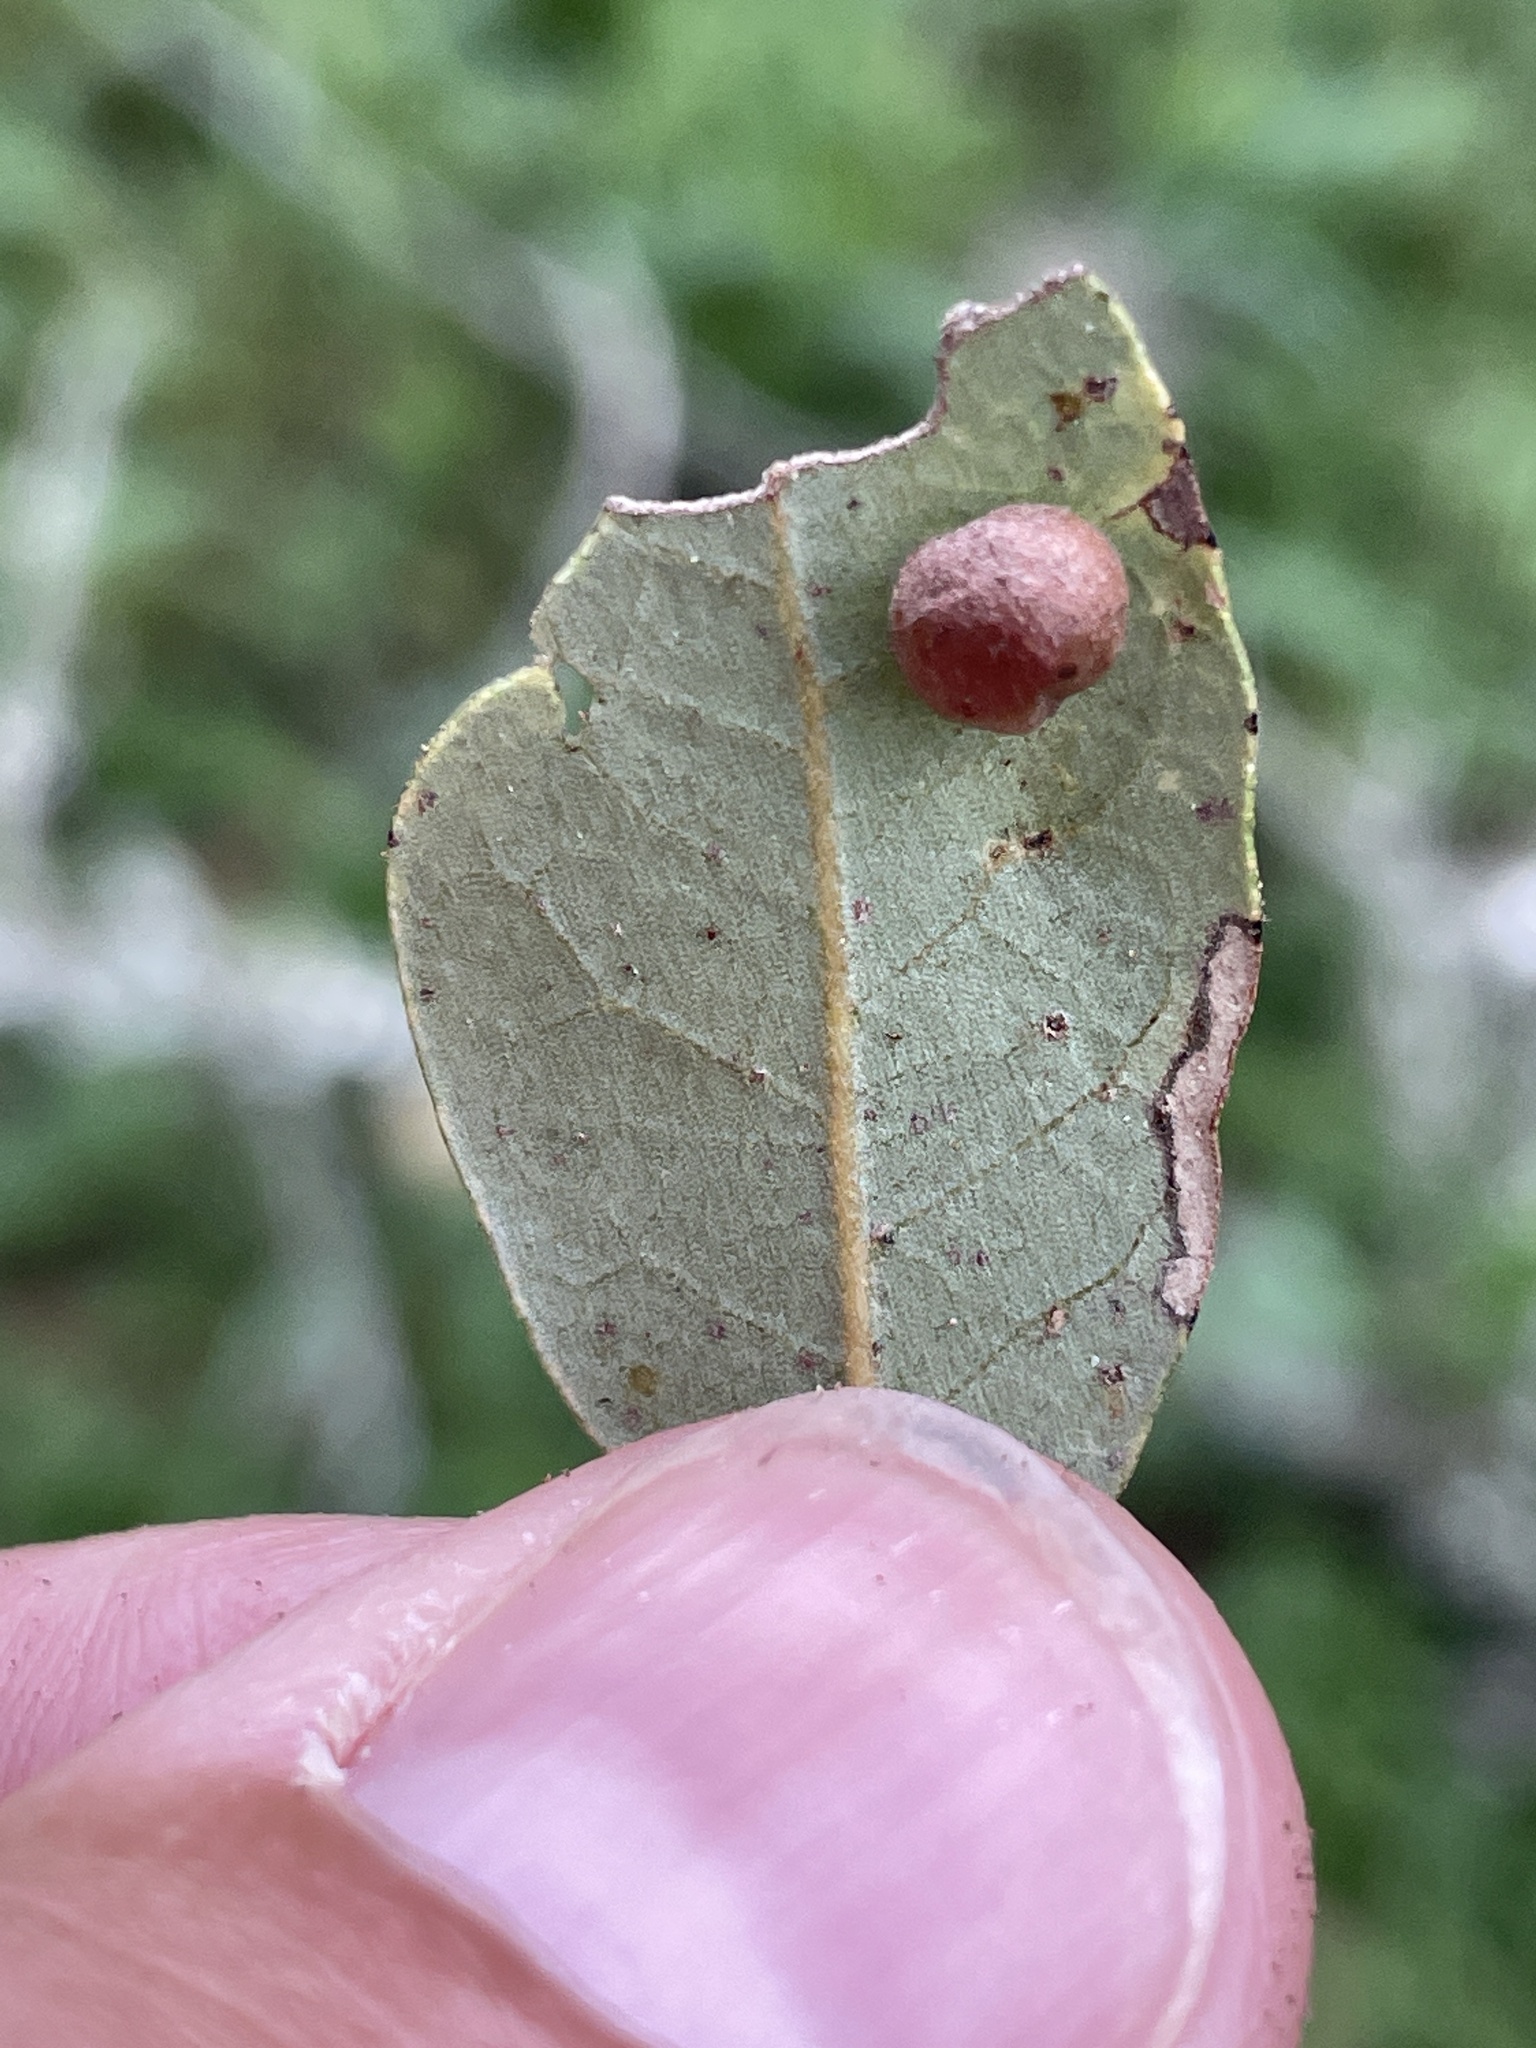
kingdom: Animalia
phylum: Arthropoda
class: Insecta
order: Hymenoptera
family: Cynipidae
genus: Belonocnema
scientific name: Belonocnema kinseyi
